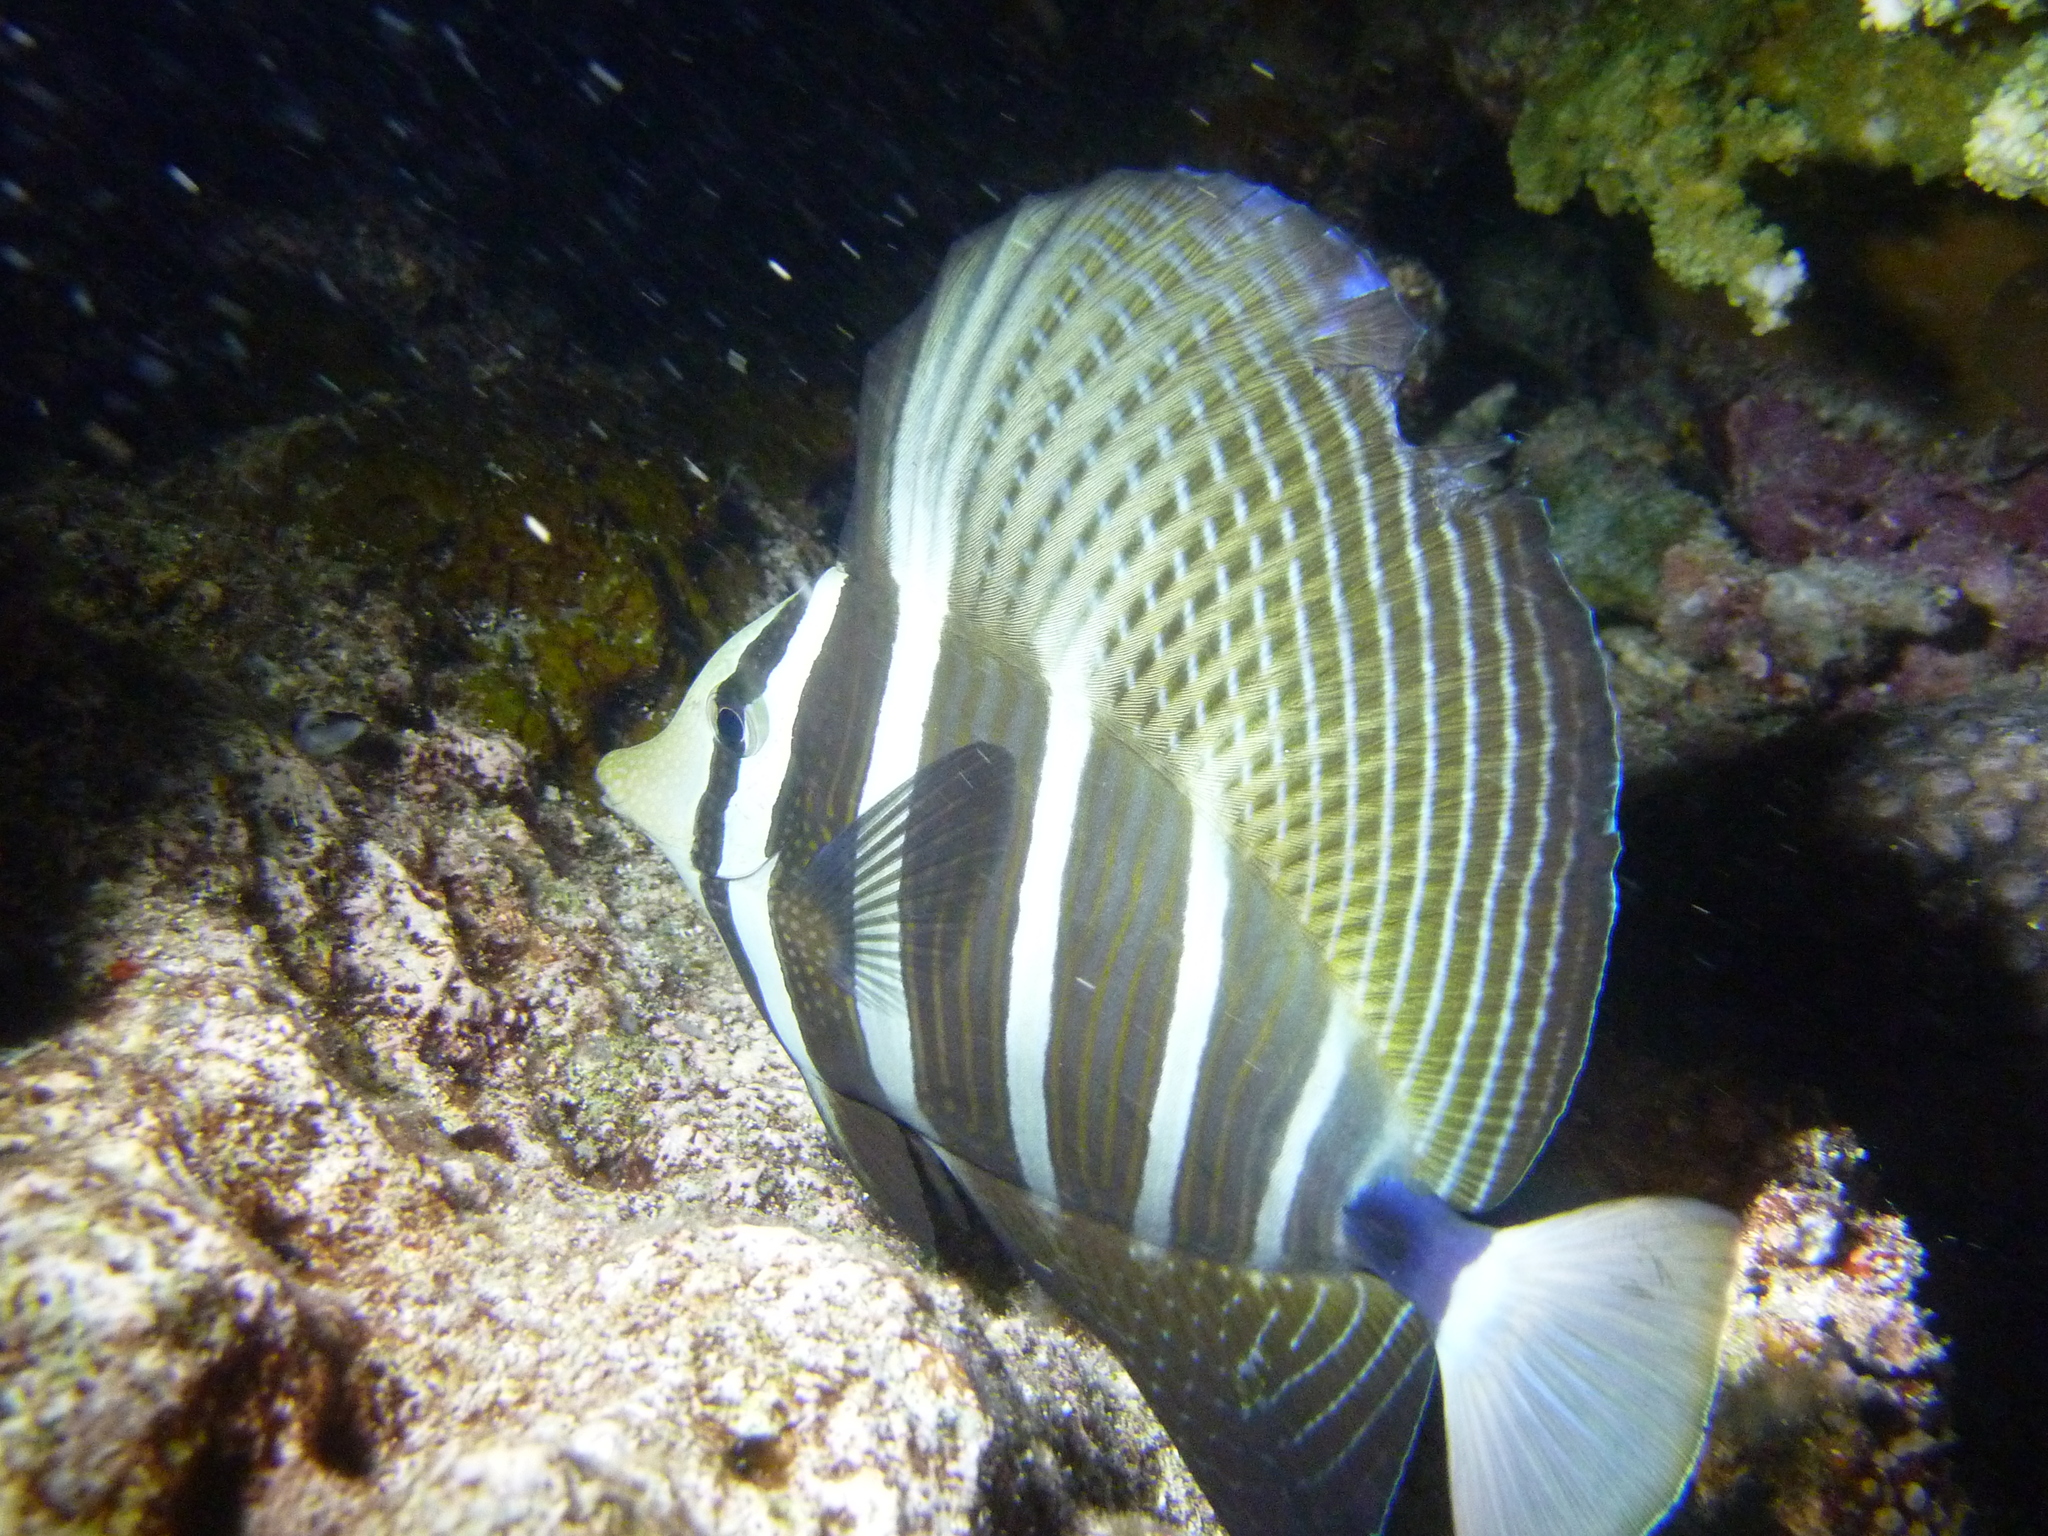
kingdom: Animalia
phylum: Chordata
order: Perciformes
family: Acanthuridae
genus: Zebrasoma
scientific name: Zebrasoma veliferum
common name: Sailfin surgeonfish
